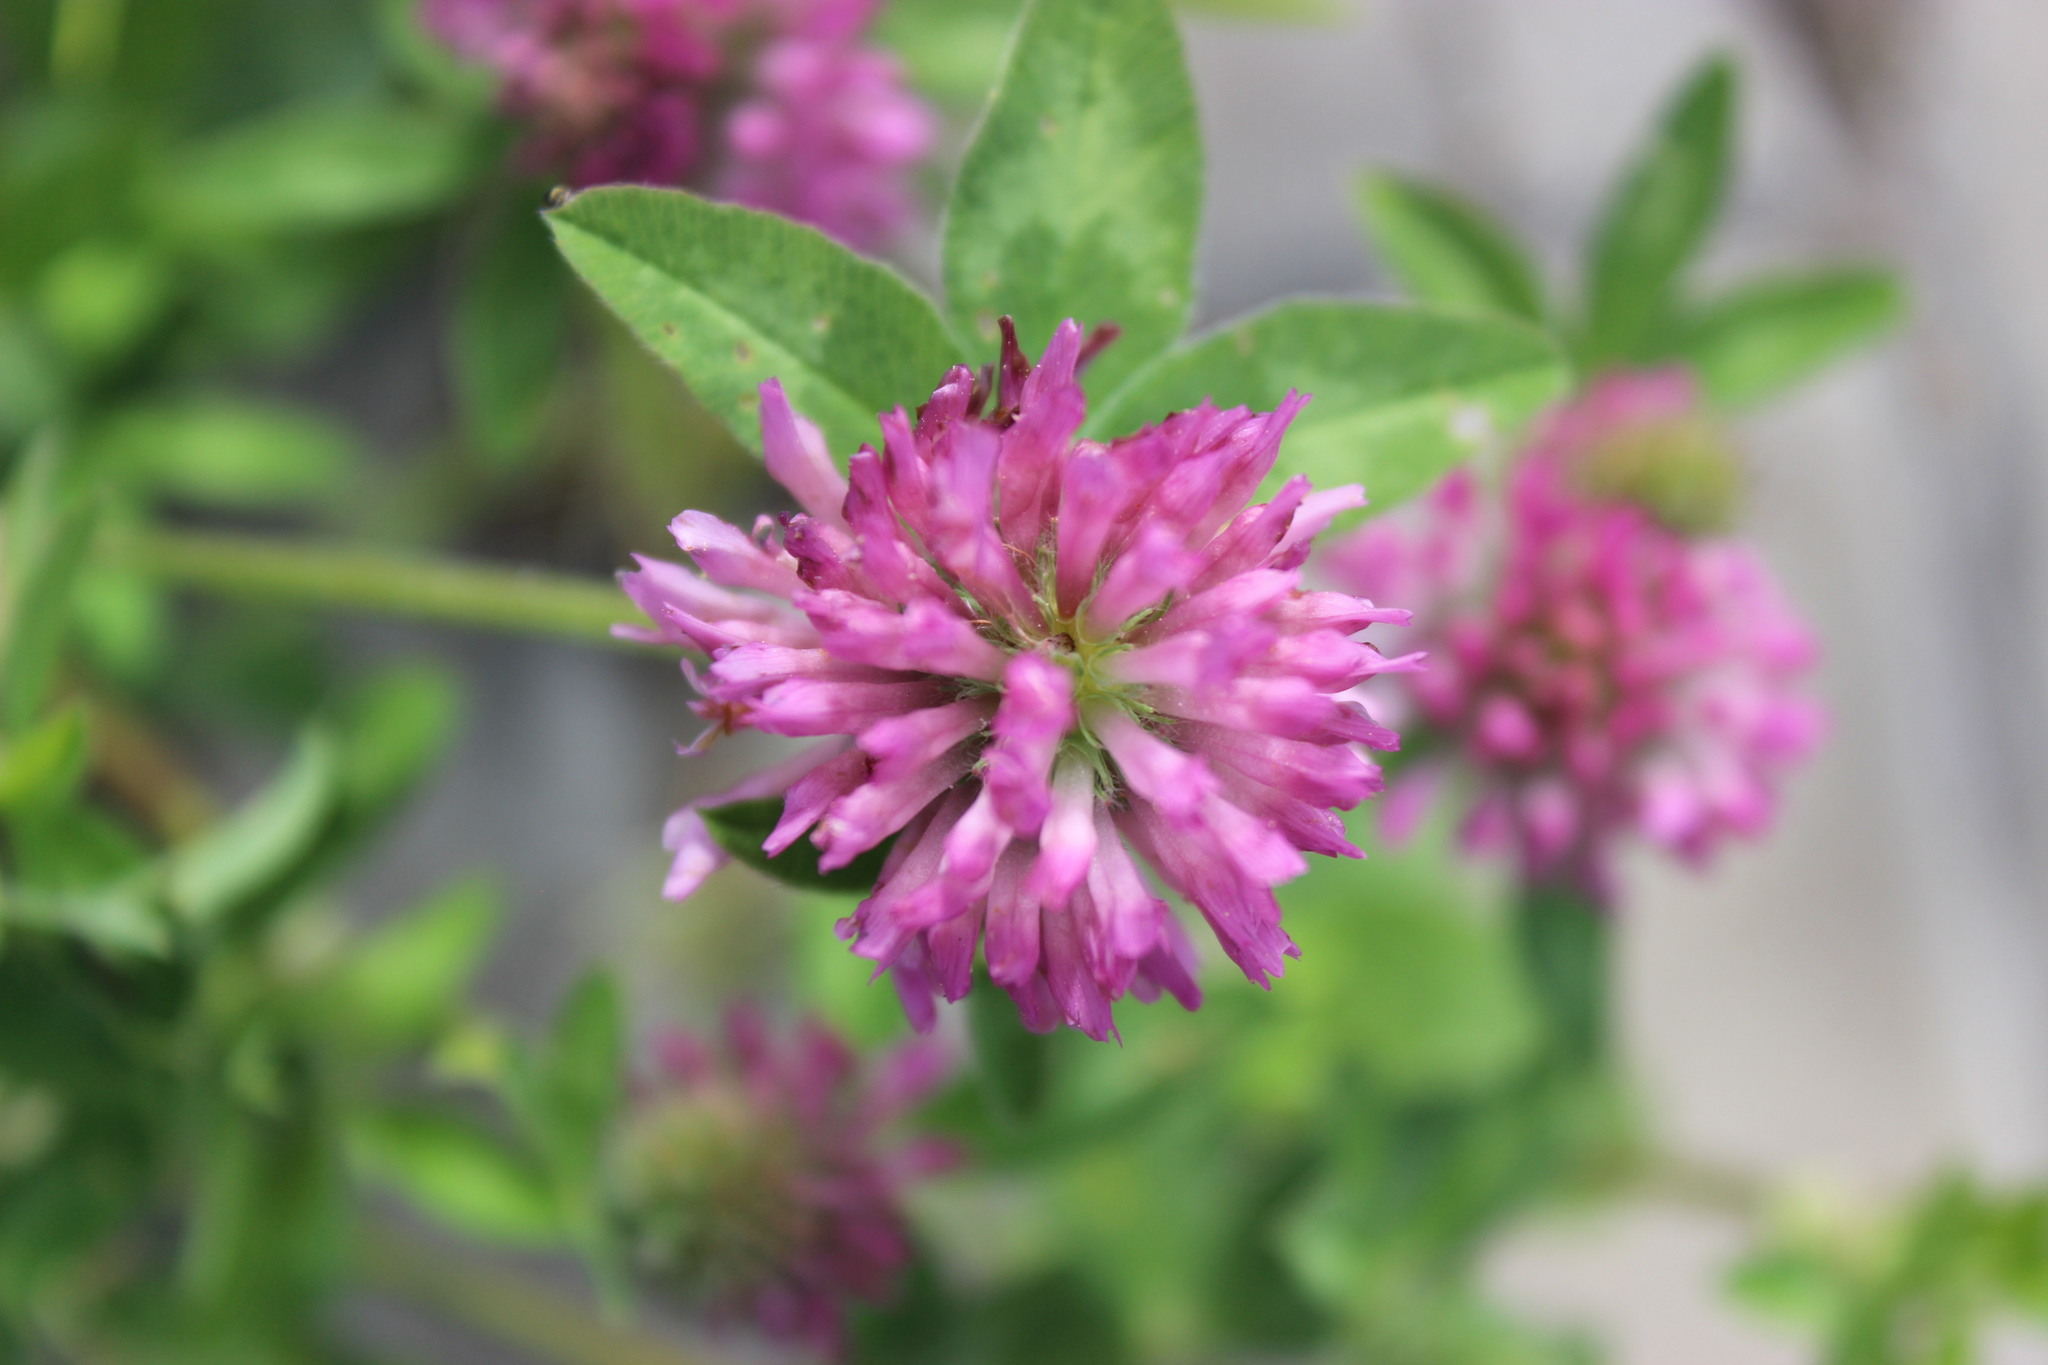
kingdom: Plantae
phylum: Tracheophyta
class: Magnoliopsida
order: Fabales
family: Fabaceae
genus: Trifolium
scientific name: Trifolium pratense
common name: Red clover
